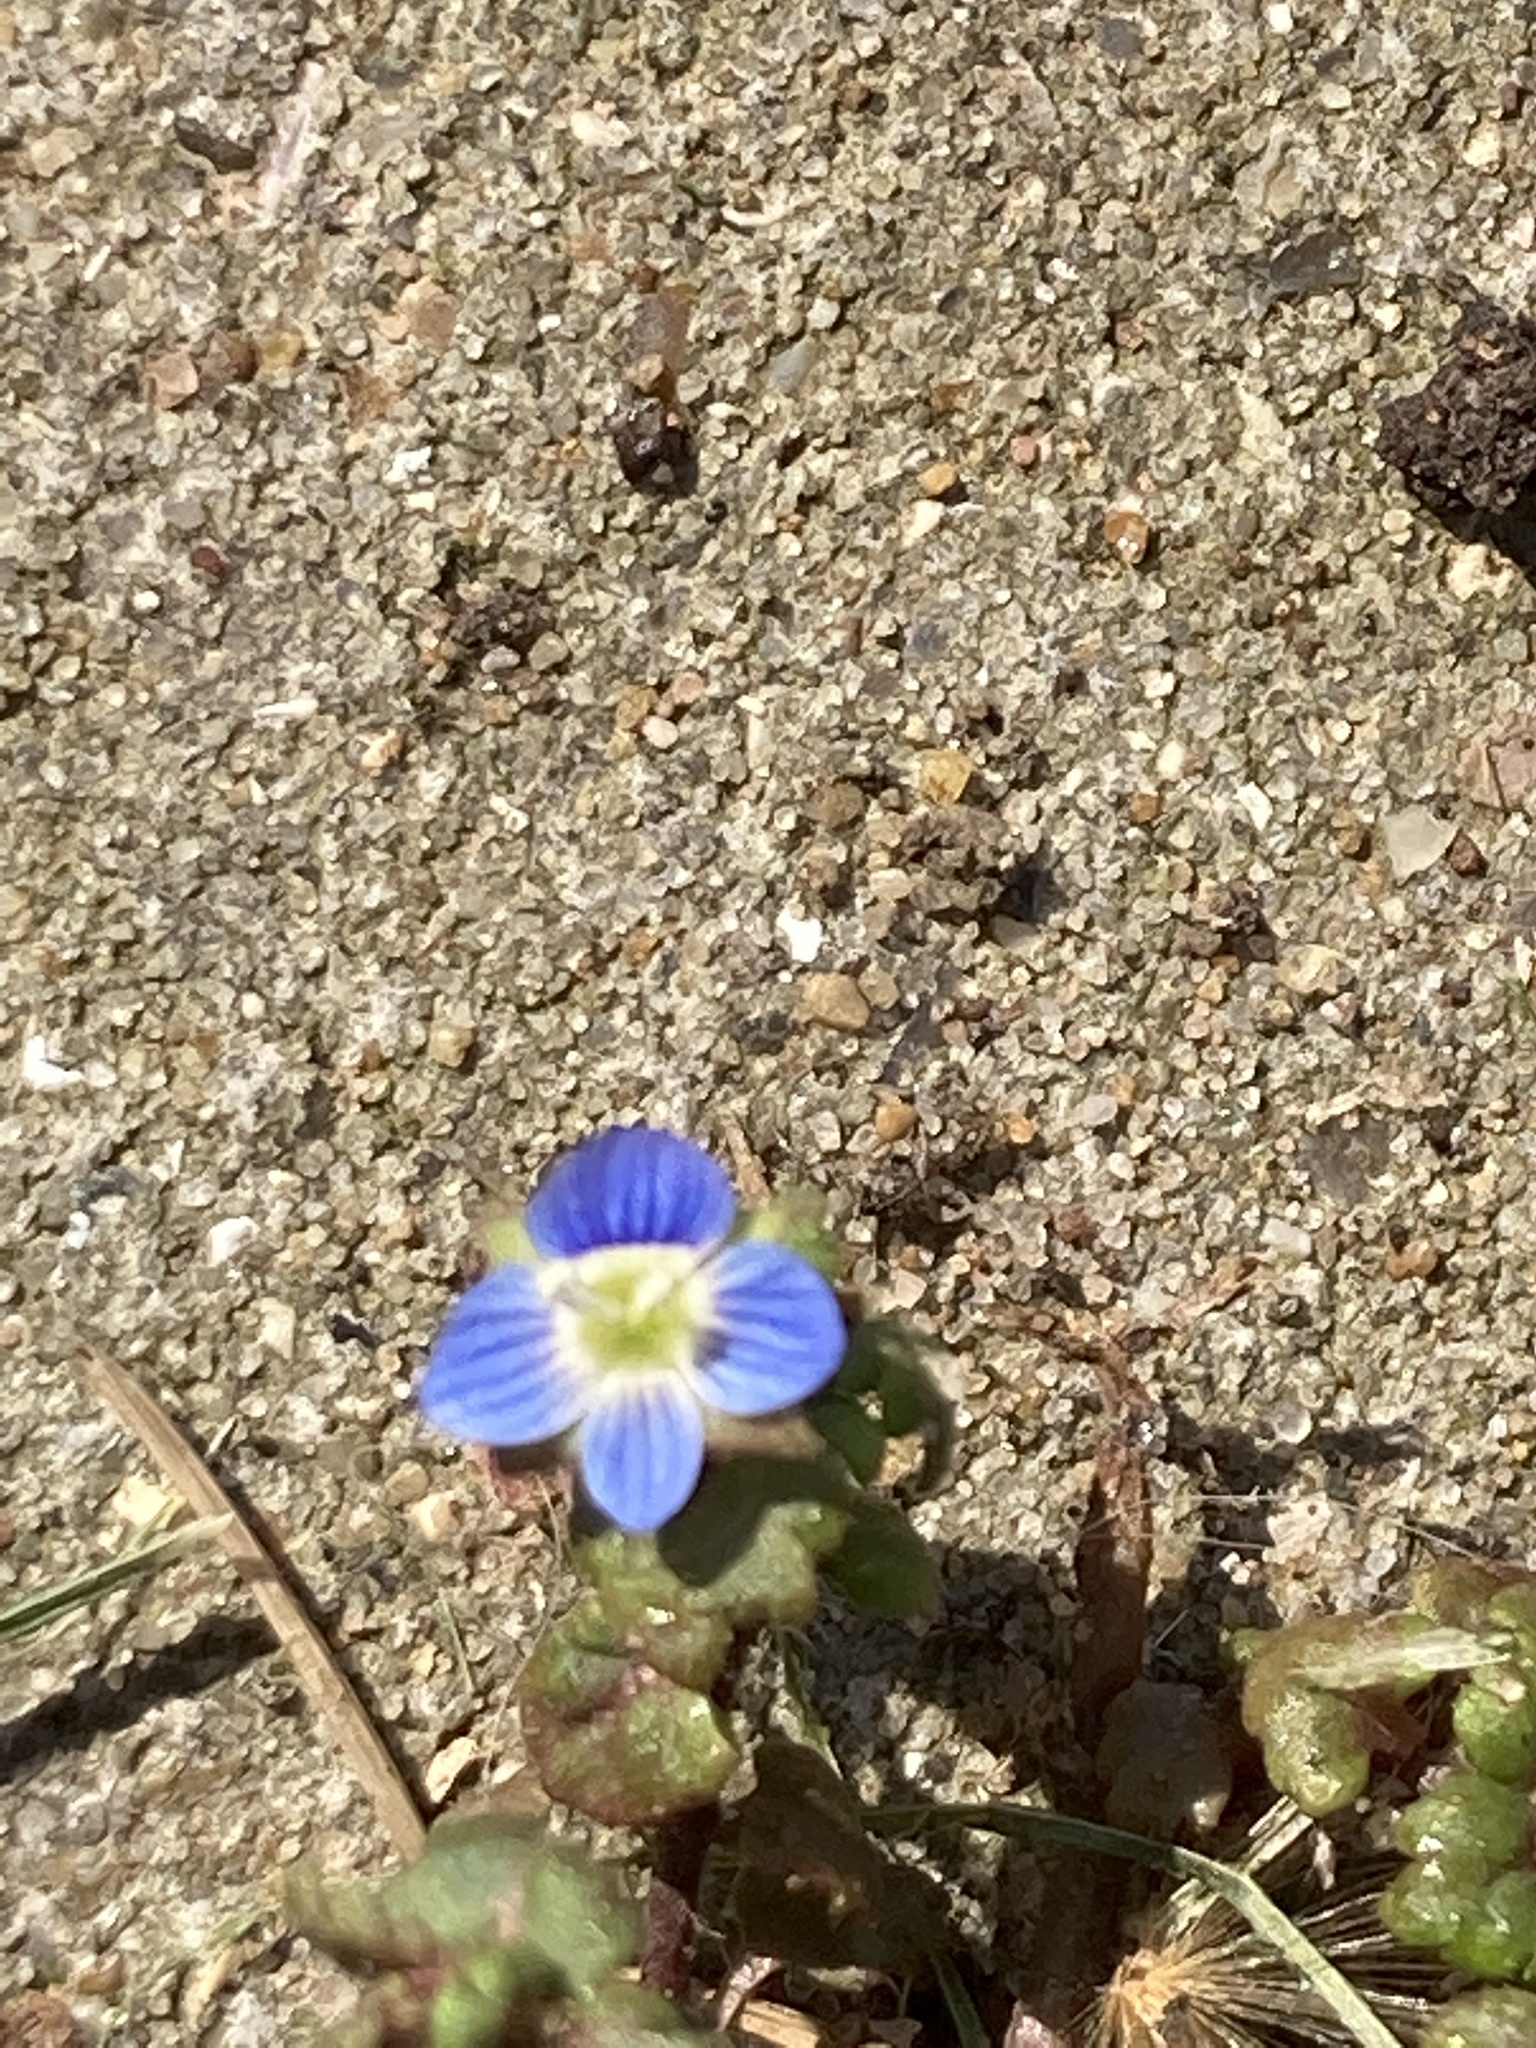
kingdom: Plantae
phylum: Tracheophyta
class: Magnoliopsida
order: Lamiales
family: Plantaginaceae
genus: Veronica
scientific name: Veronica polita
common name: Grey field-speedwell
